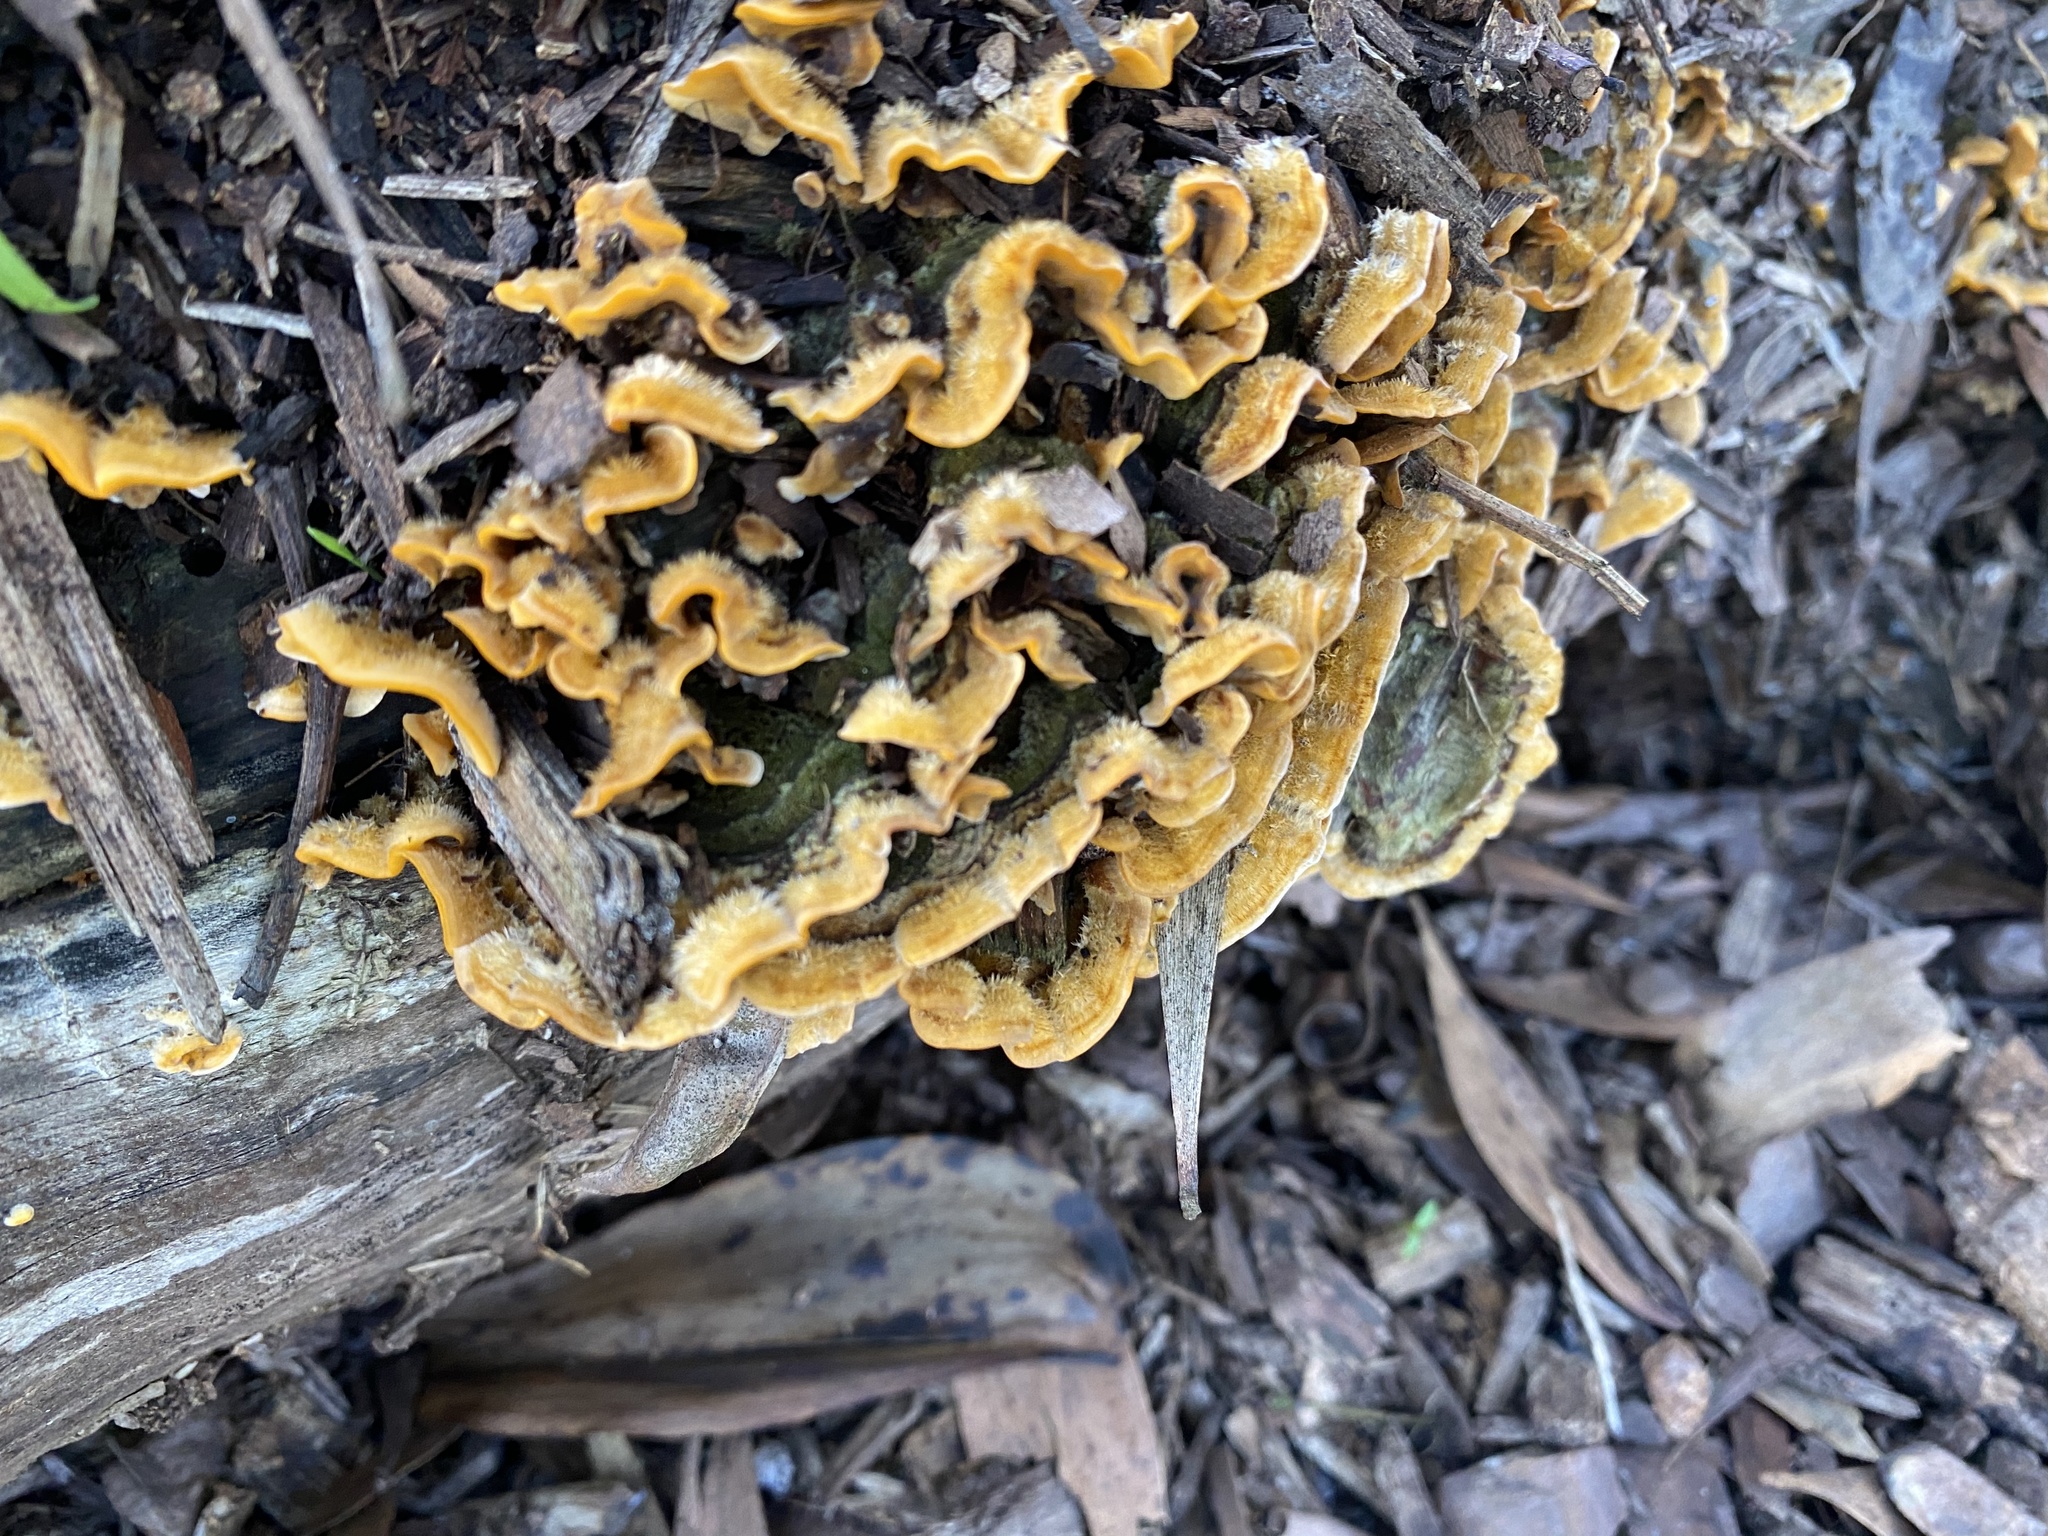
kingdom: Fungi
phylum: Basidiomycota
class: Agaricomycetes
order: Russulales
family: Stereaceae
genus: Stereum
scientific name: Stereum hirsutum
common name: Hairy curtain crust
